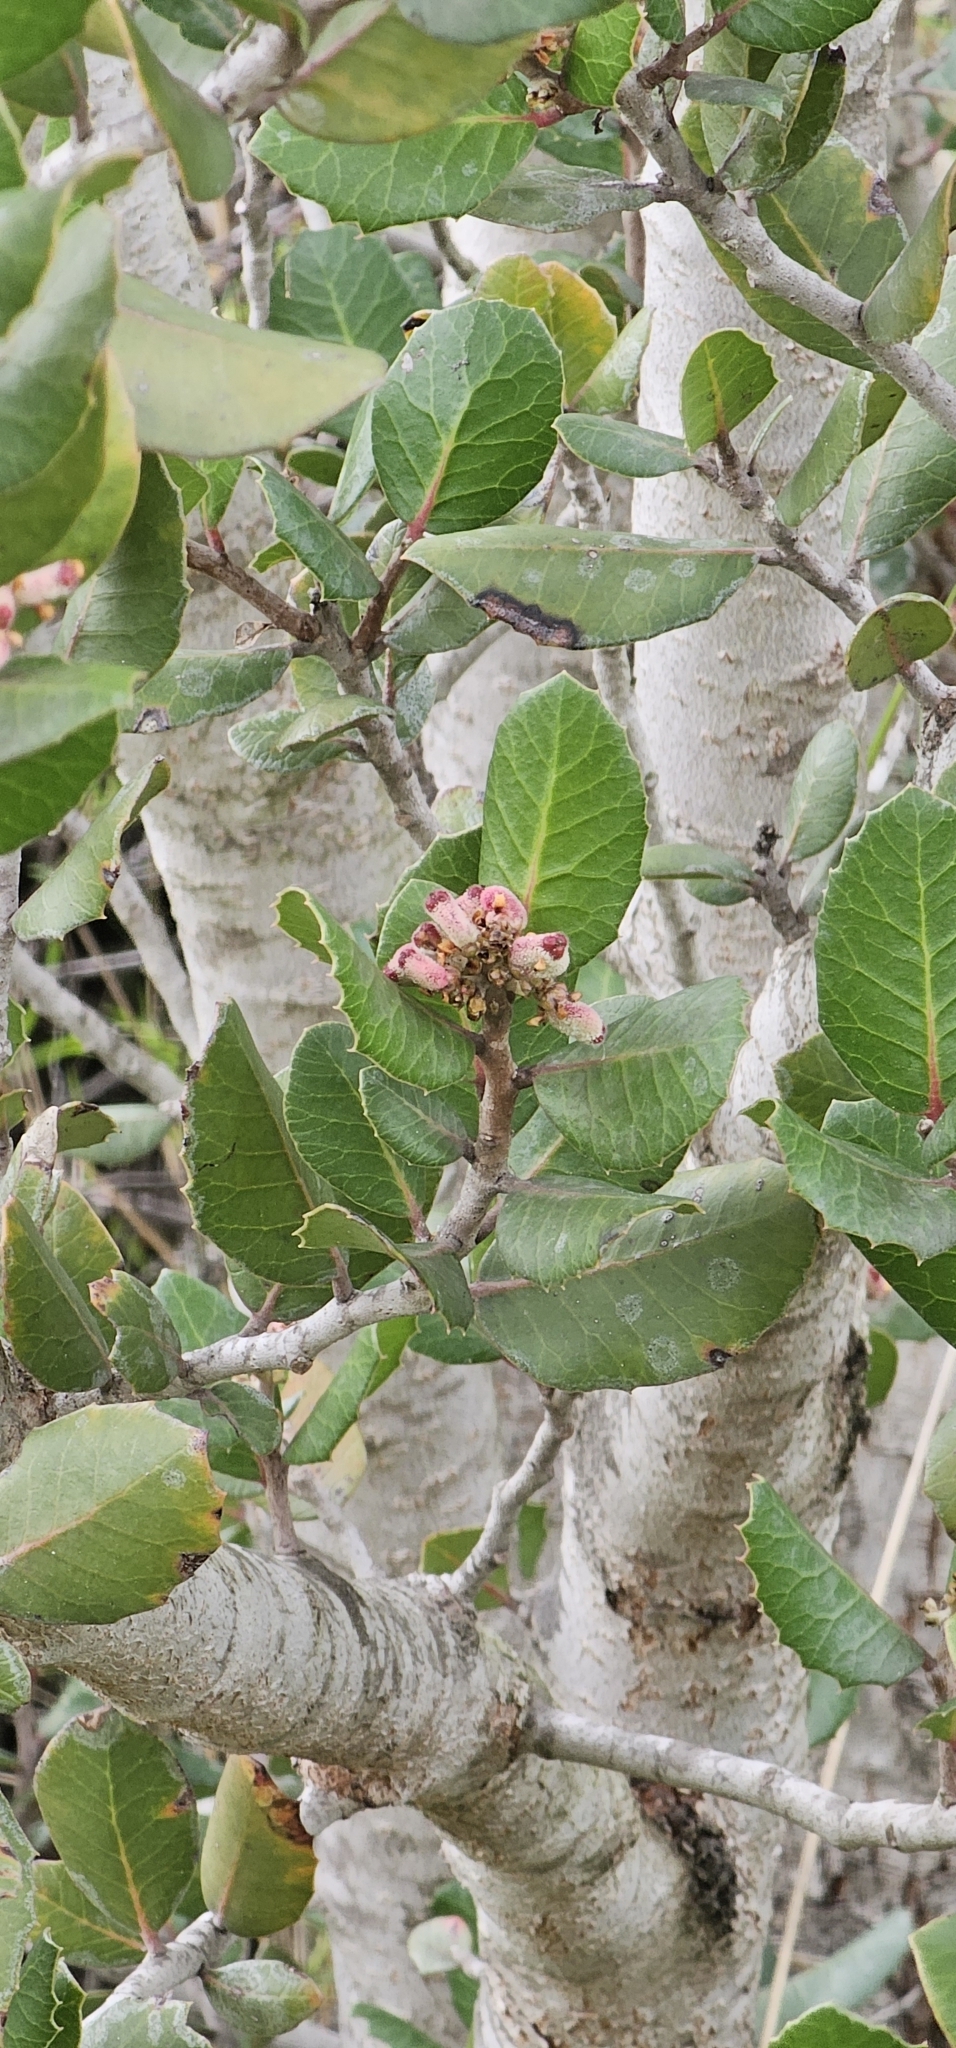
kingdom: Plantae
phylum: Tracheophyta
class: Magnoliopsida
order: Sapindales
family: Anacardiaceae
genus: Rhus
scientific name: Rhus integrifolia
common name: Lemonade sumac
